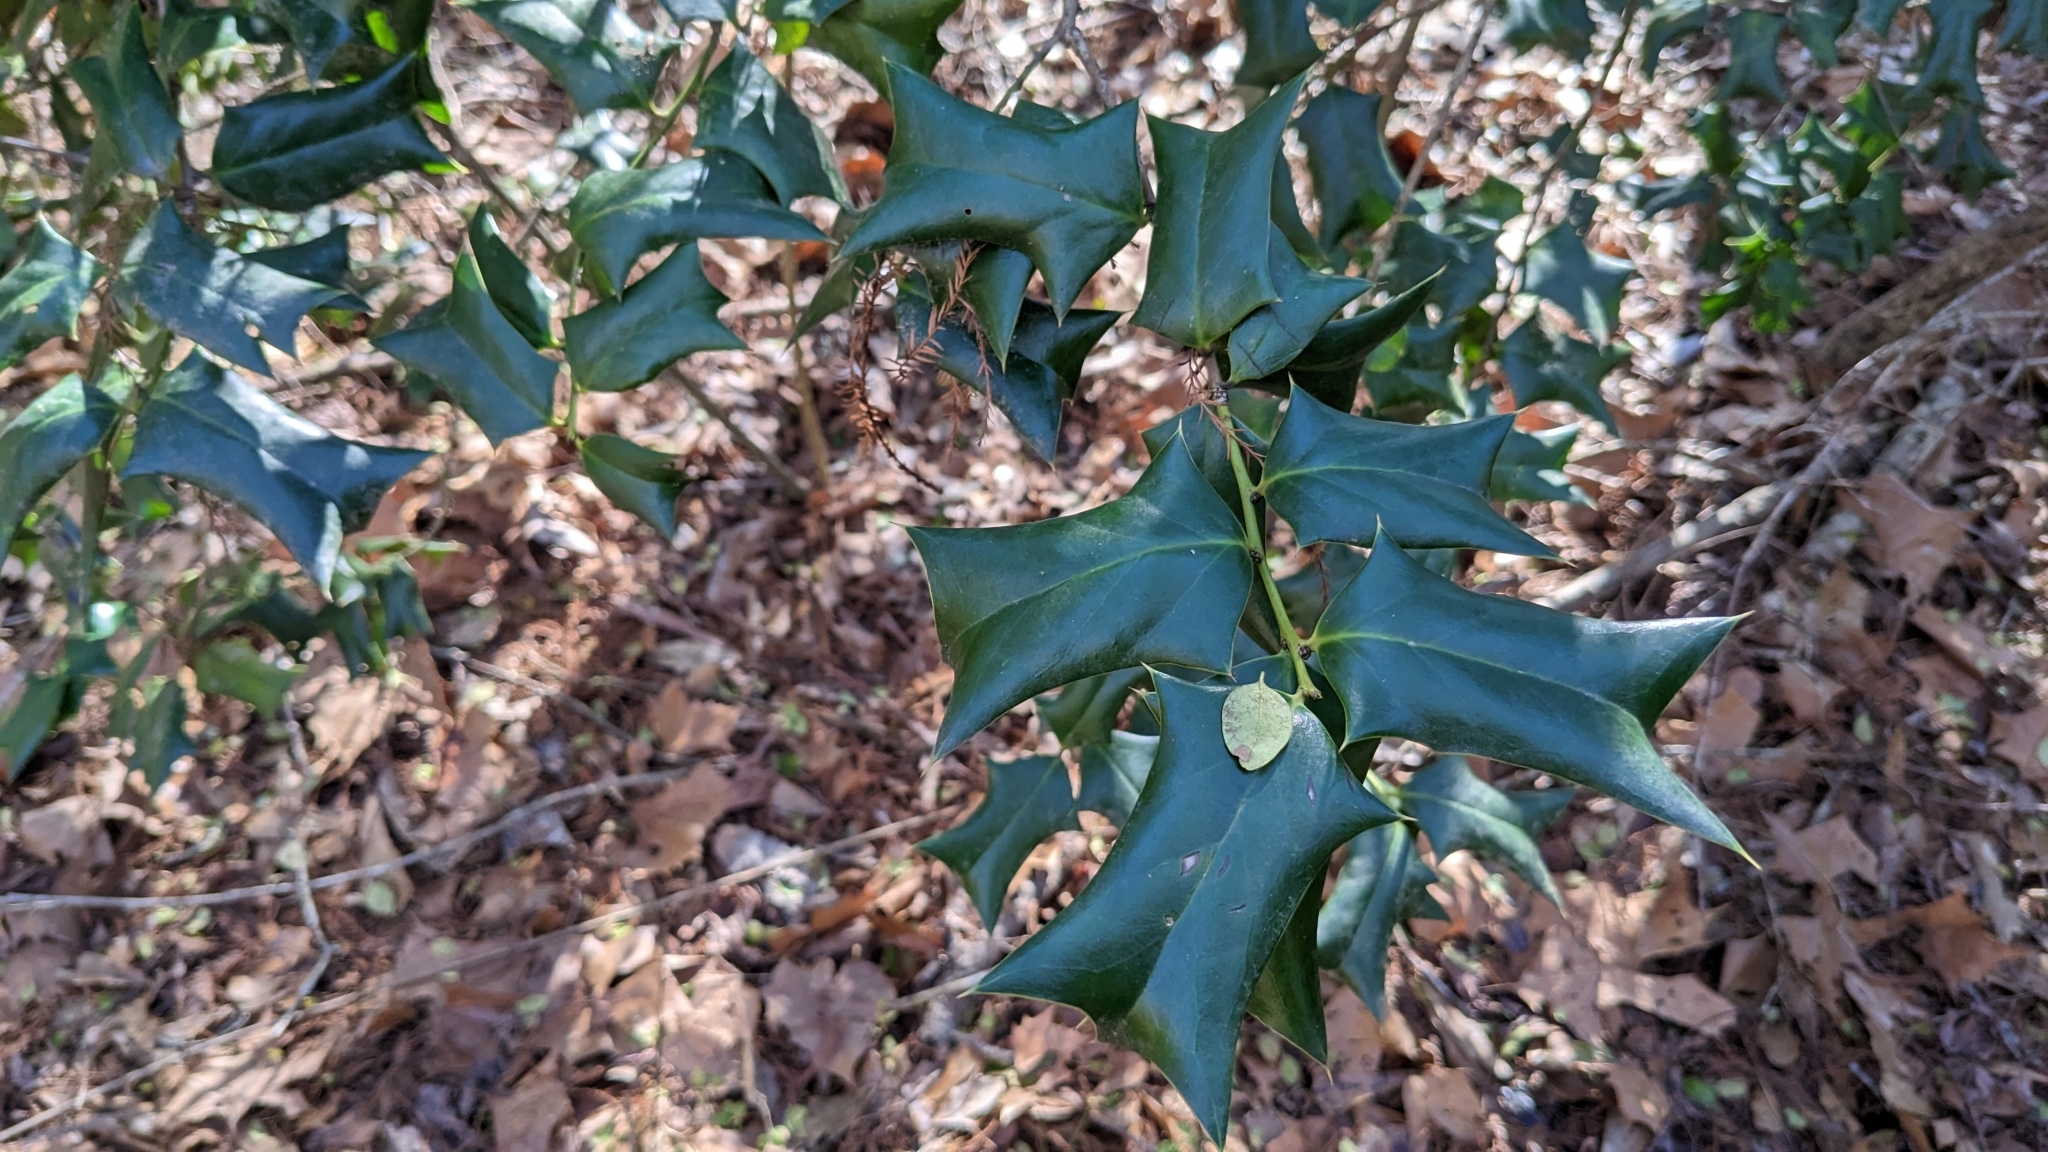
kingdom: Plantae
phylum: Tracheophyta
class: Magnoliopsida
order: Aquifoliales
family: Aquifoliaceae
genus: Ilex
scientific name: Ilex cornuta
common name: Chinese holly
